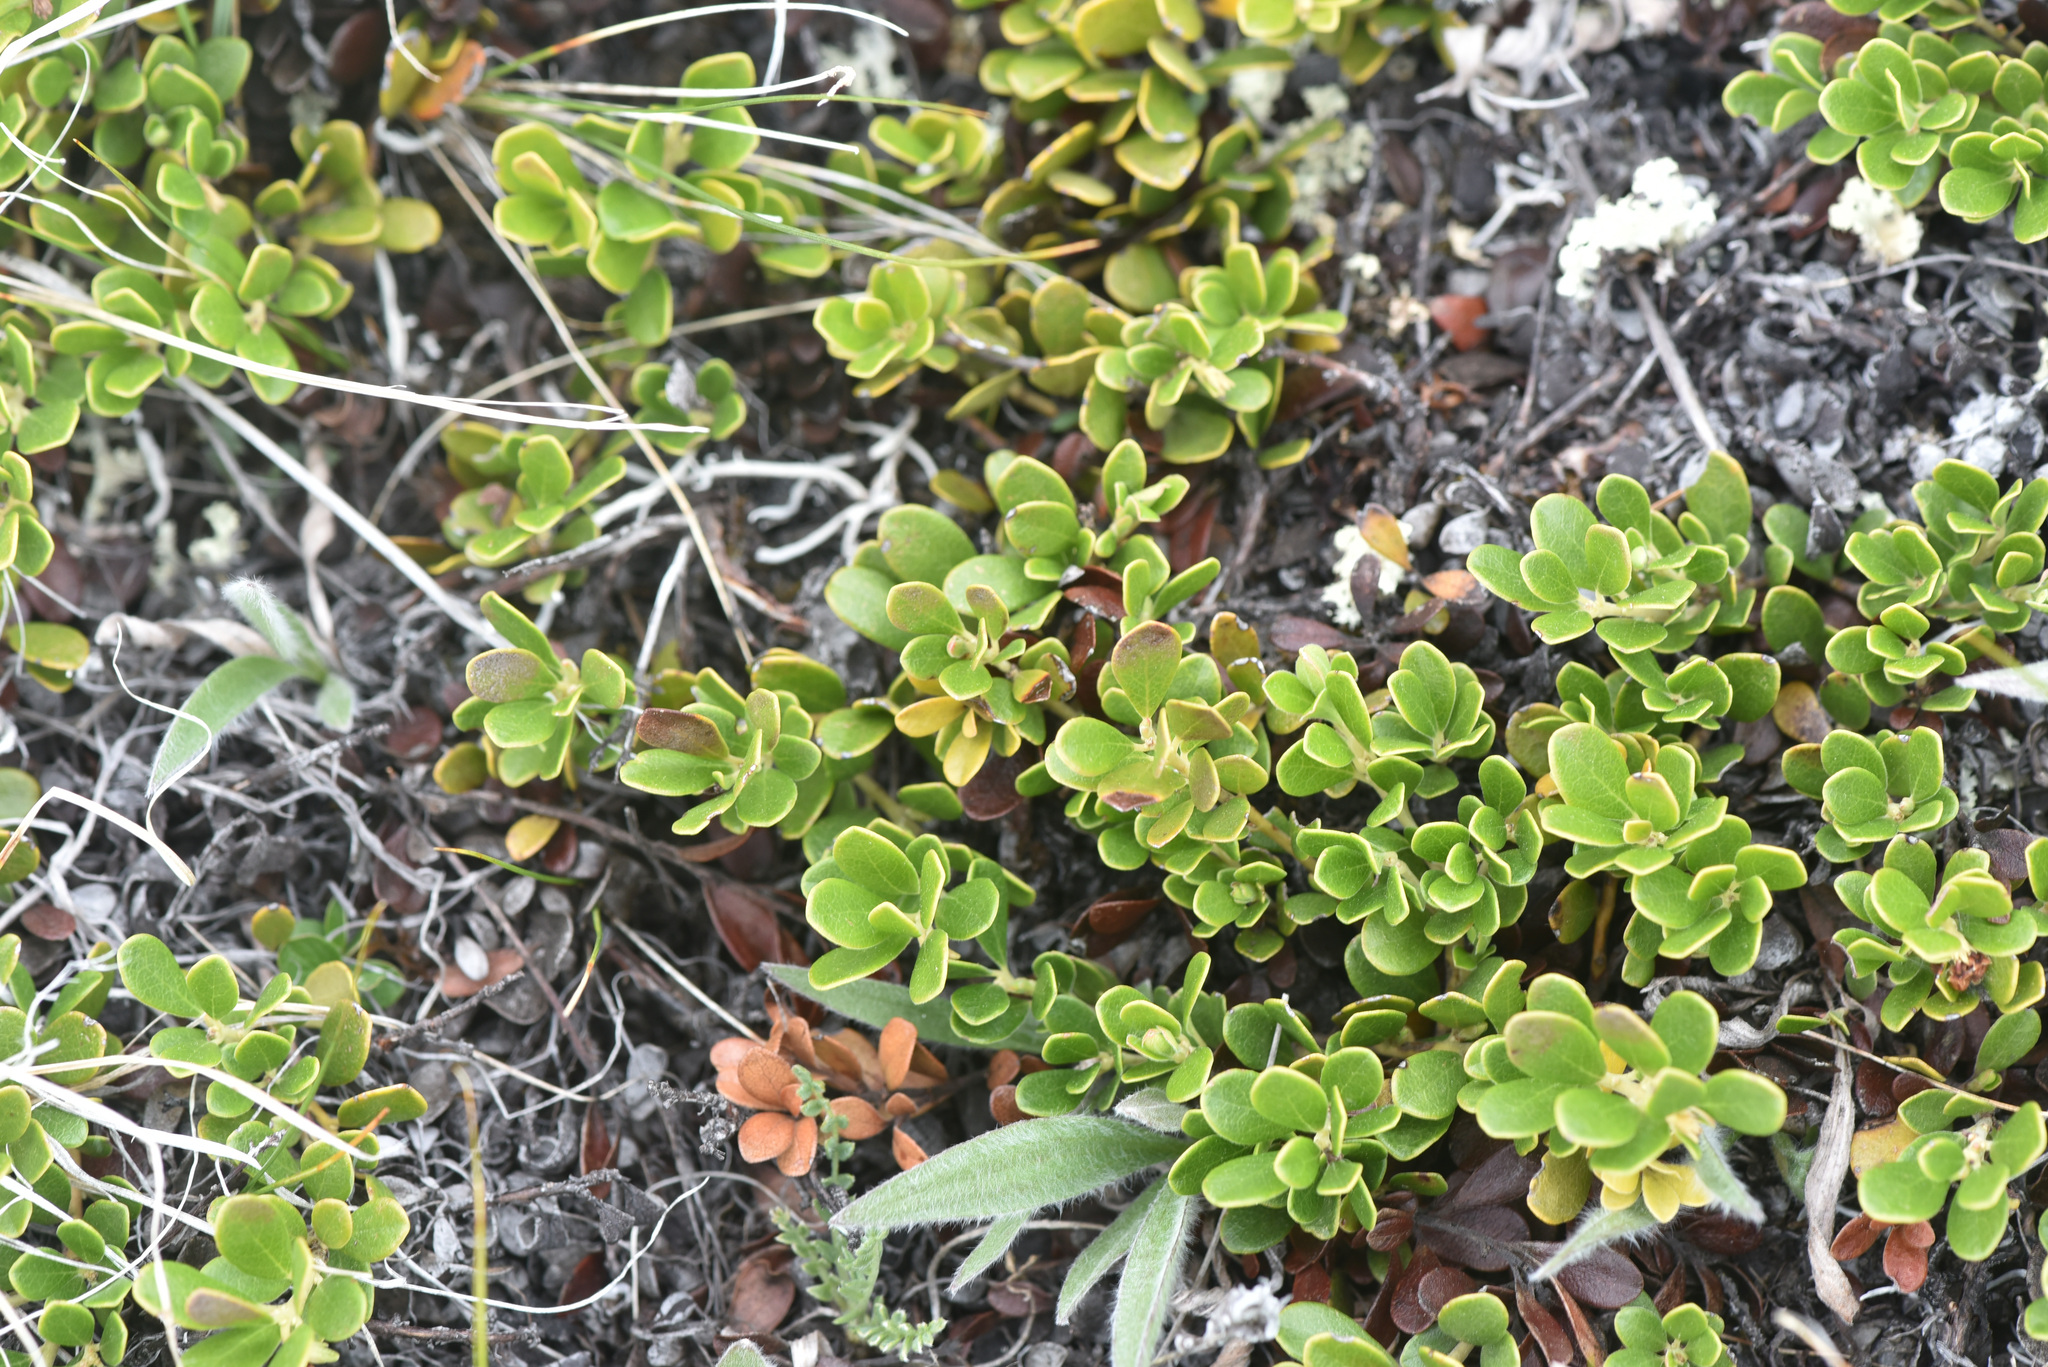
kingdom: Plantae
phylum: Tracheophyta
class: Magnoliopsida
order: Ericales
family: Ericaceae
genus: Arctostaphylos
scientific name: Arctostaphylos uva-ursi
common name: Bearberry
